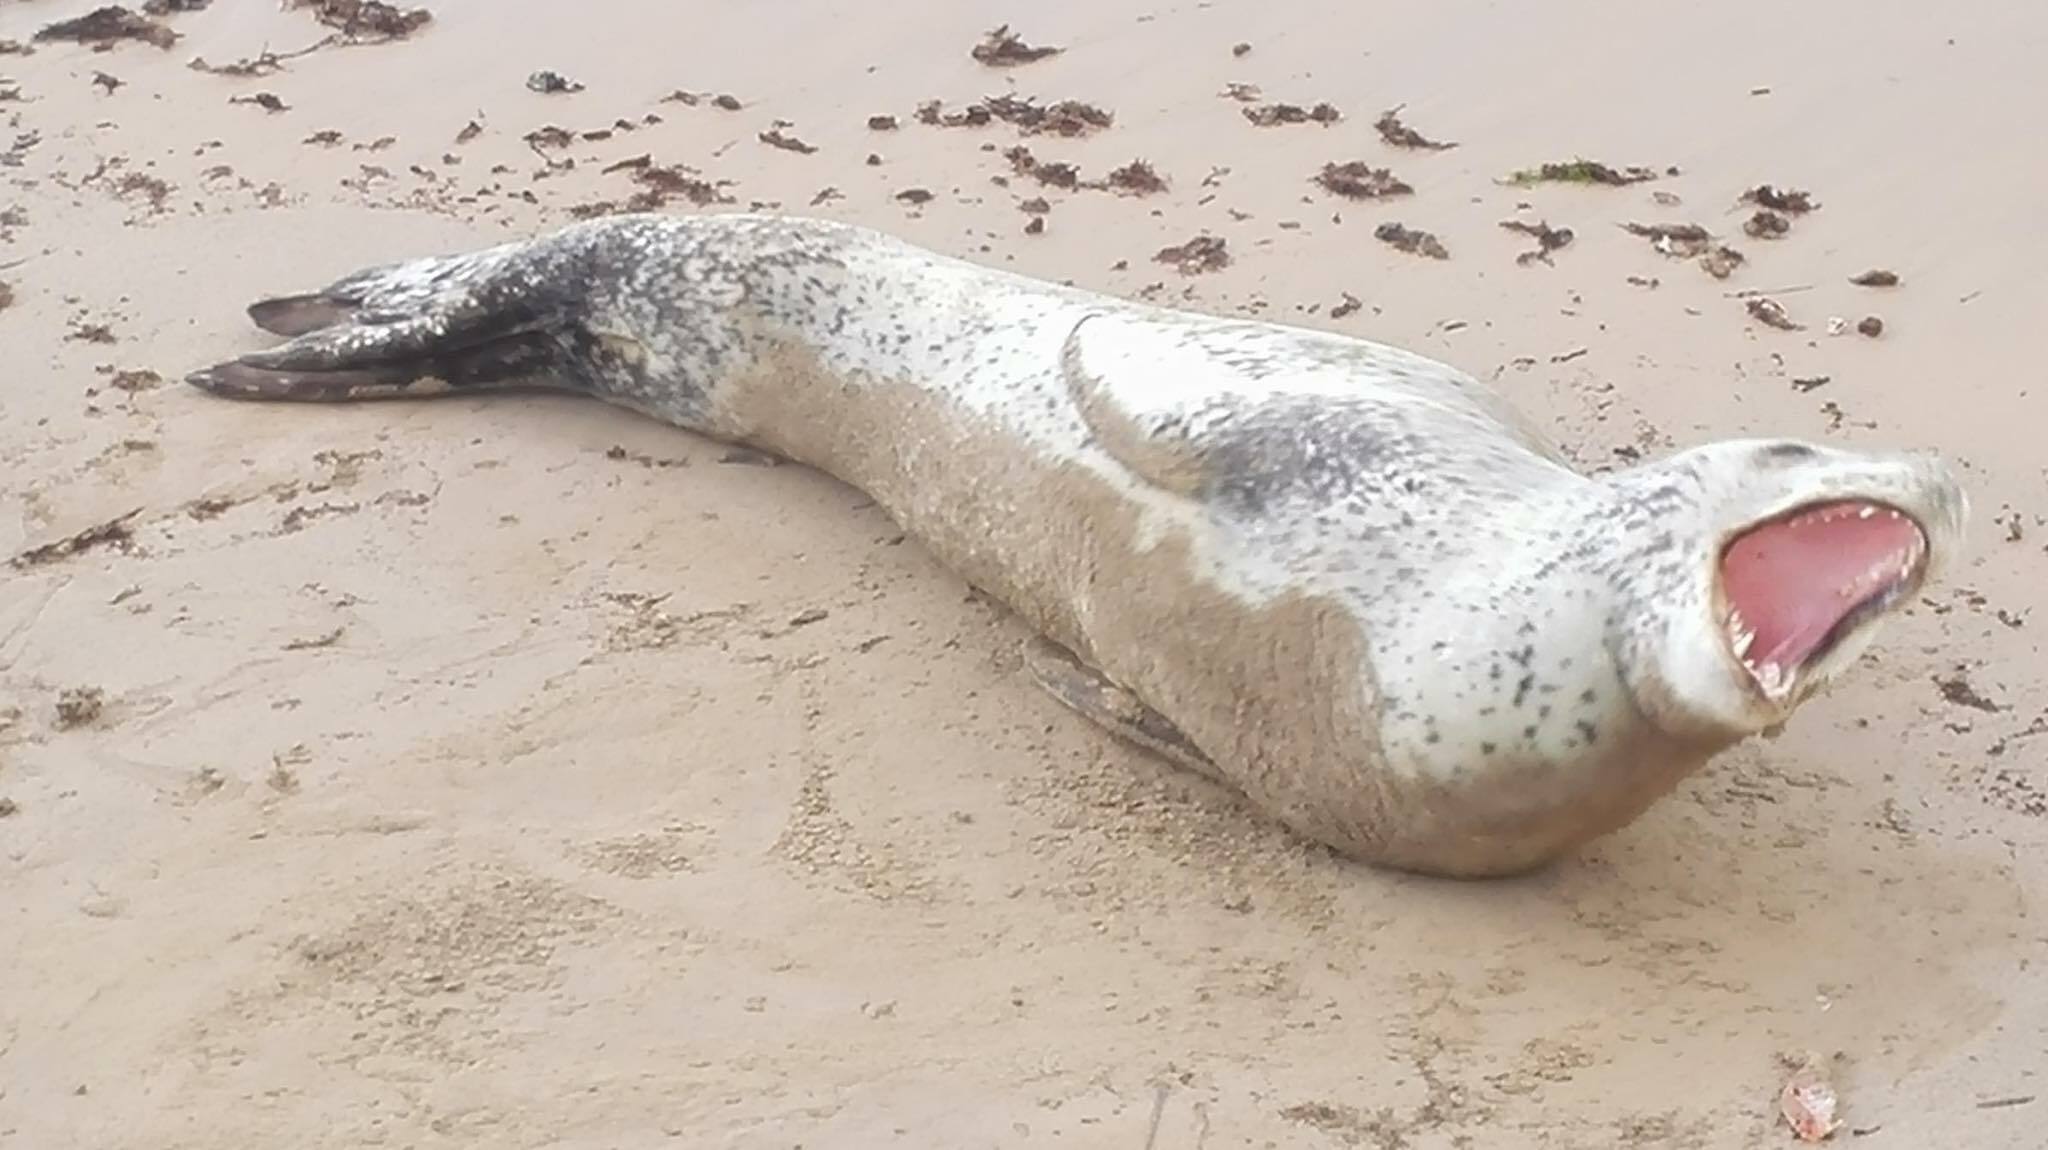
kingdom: Animalia
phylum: Chordata
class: Mammalia
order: Carnivora
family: Phocidae
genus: Hydrurga
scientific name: Hydrurga leptonyx
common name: Leopard seal
